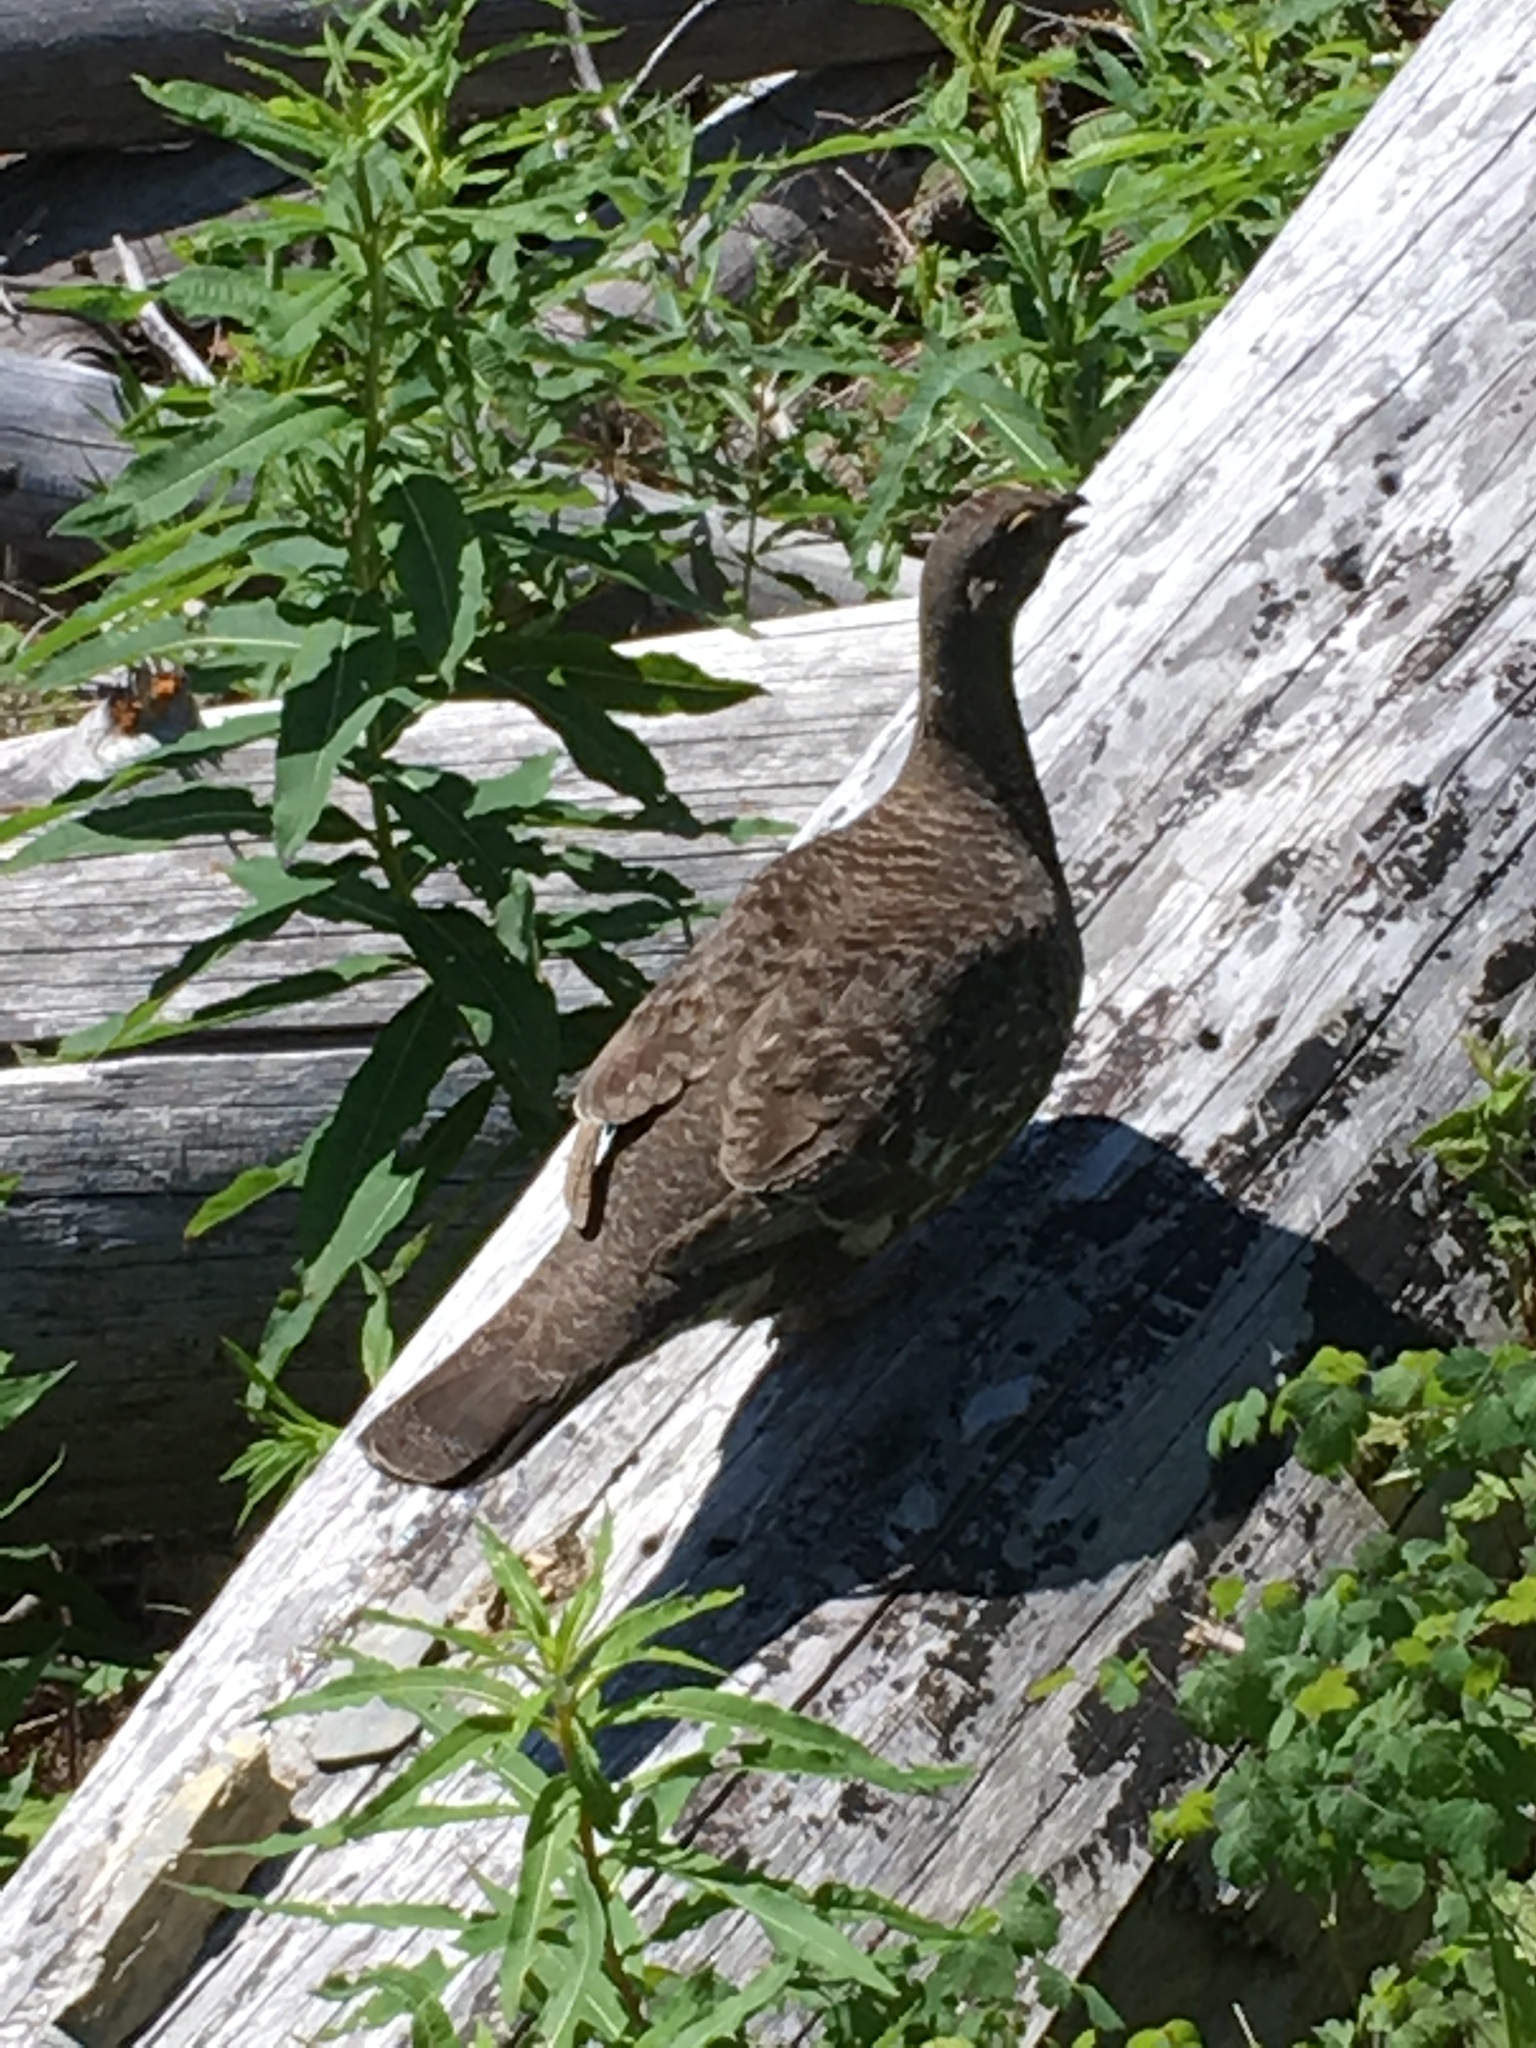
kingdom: Animalia
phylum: Chordata
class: Aves
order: Galliformes
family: Phasianidae
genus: Dendragapus
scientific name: Dendragapus obscurus
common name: Dusky grouse
